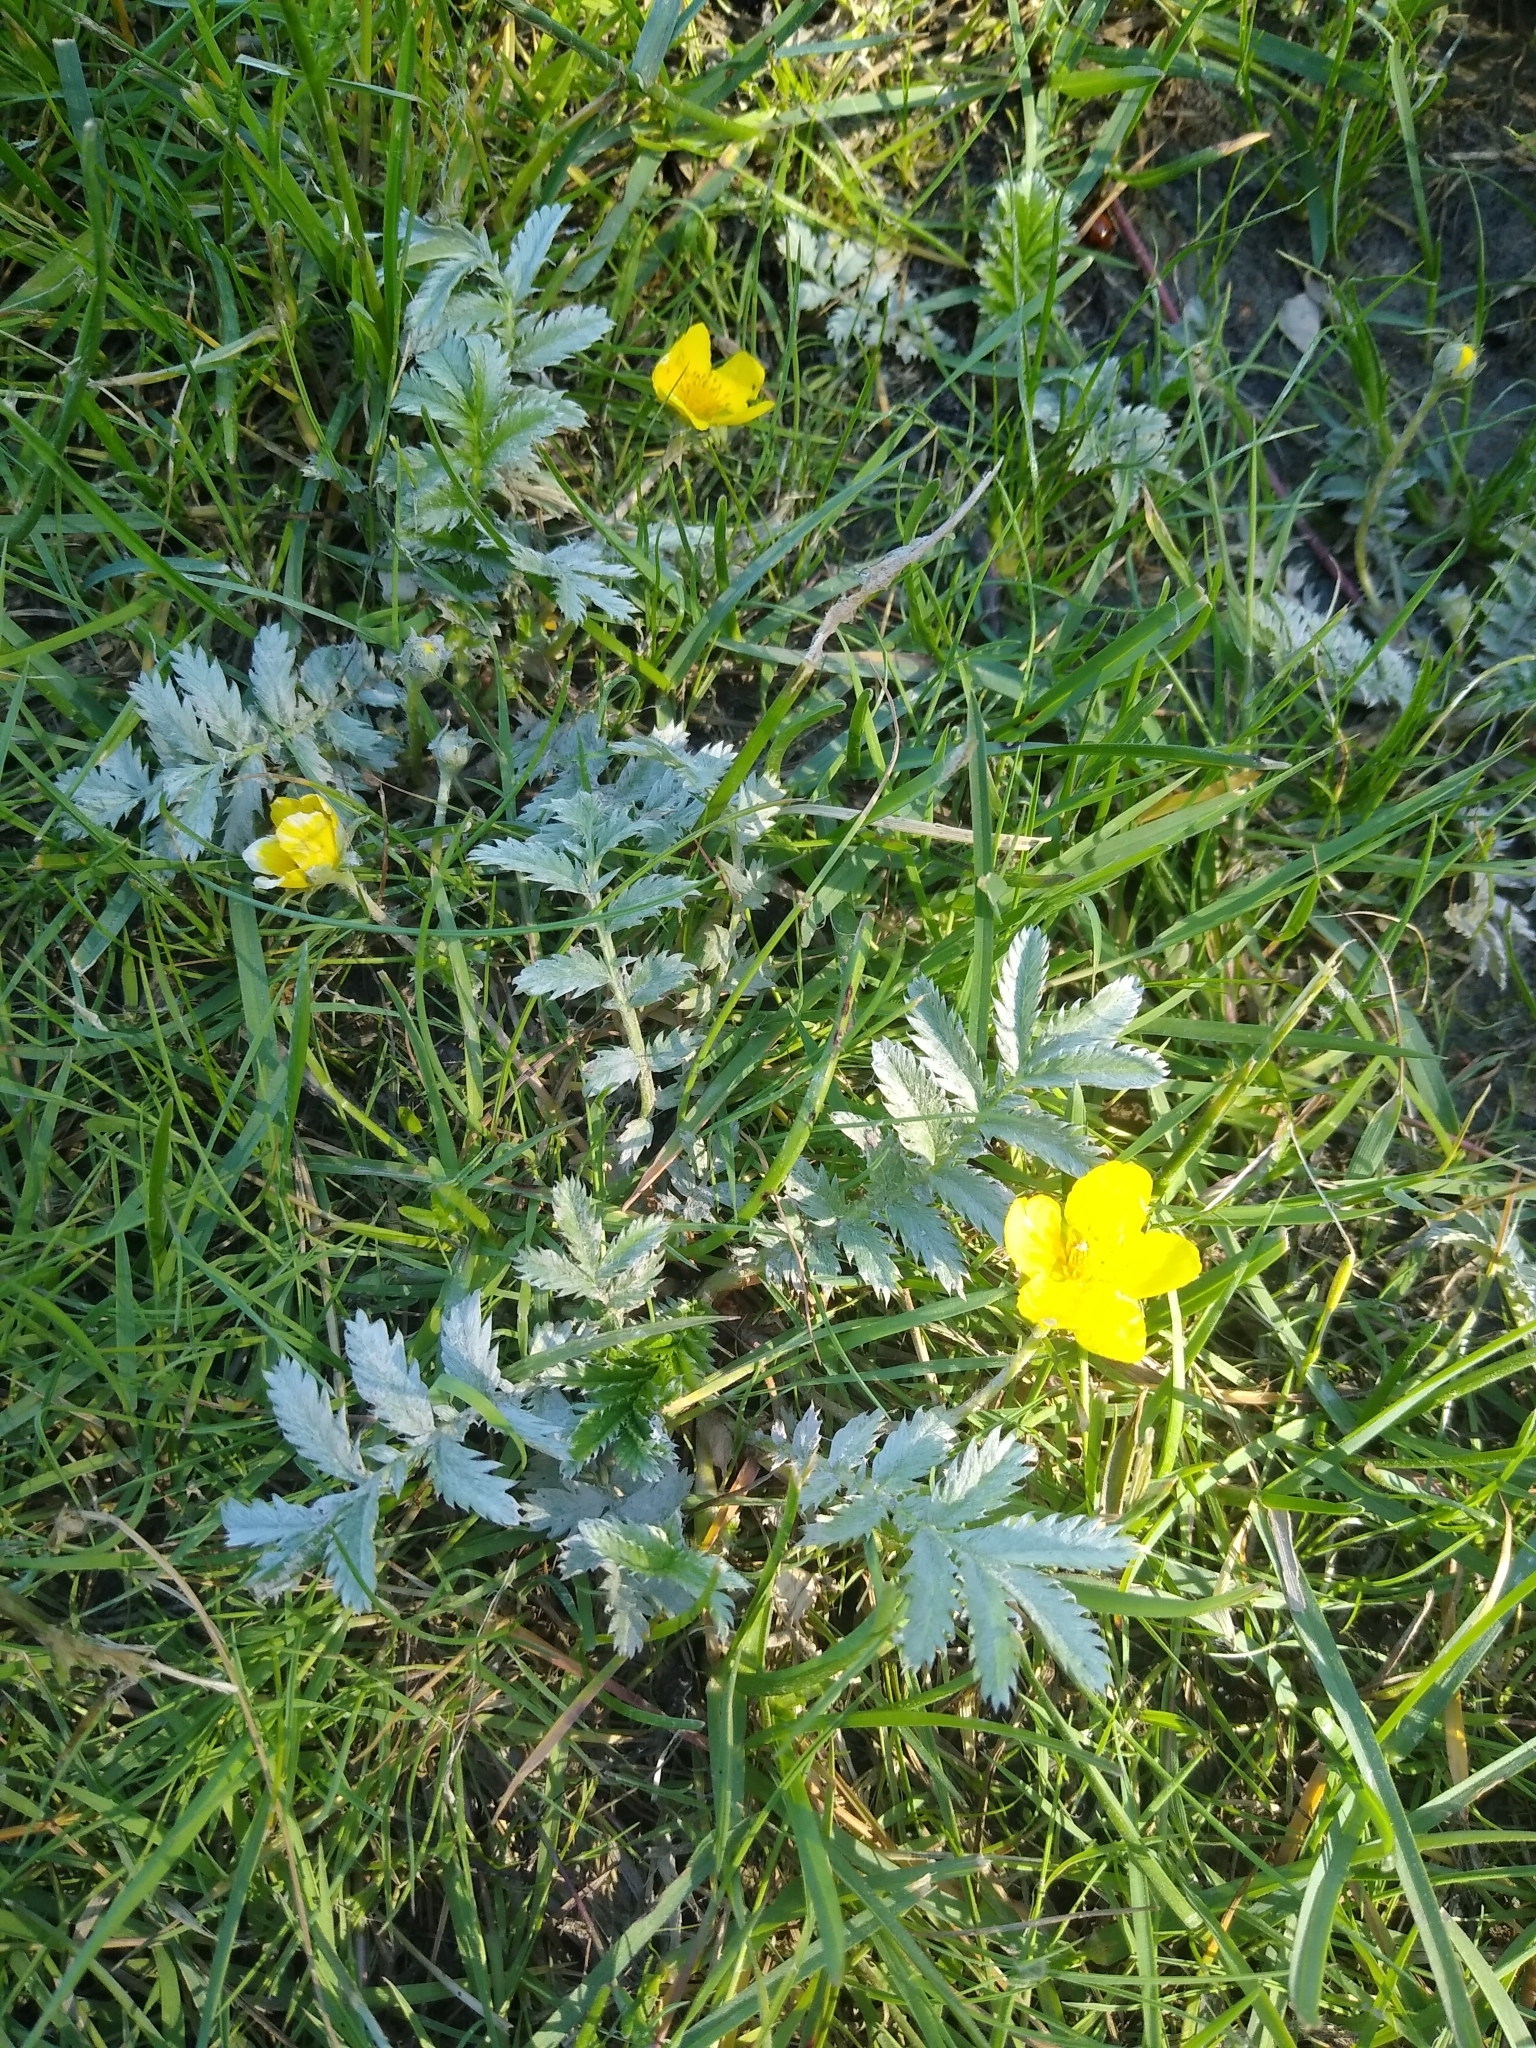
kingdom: Plantae
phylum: Tracheophyta
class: Magnoliopsida
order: Rosales
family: Rosaceae
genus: Argentina
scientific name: Argentina anserina
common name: Common silverweed
